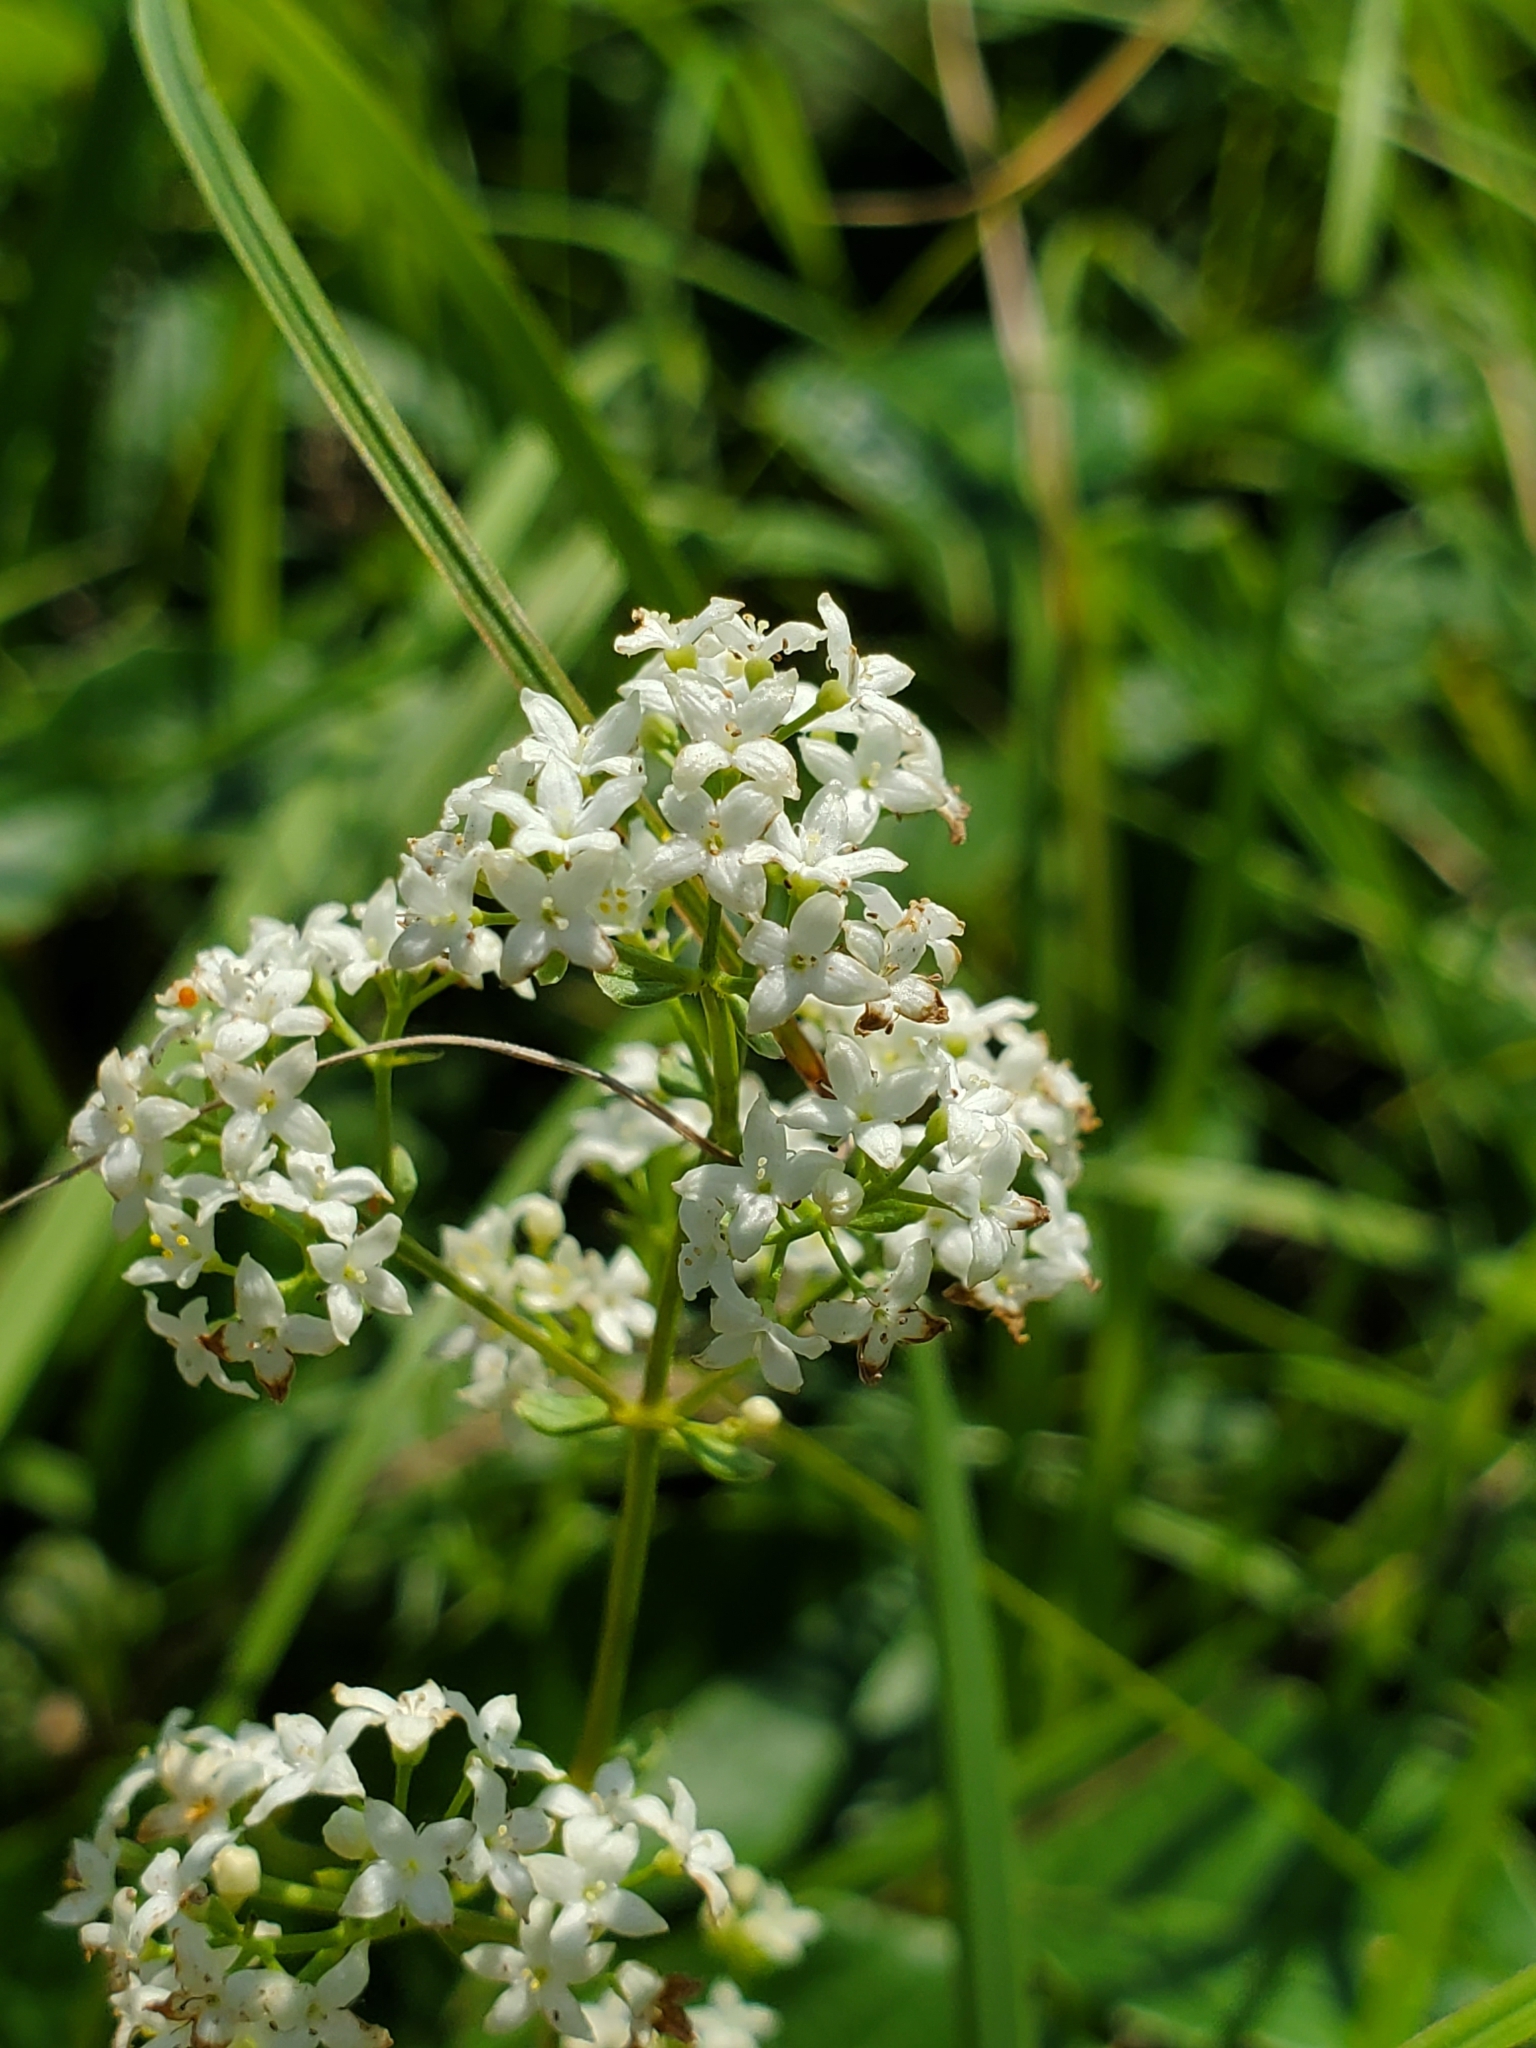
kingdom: Plantae
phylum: Tracheophyta
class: Magnoliopsida
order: Gentianales
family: Rubiaceae
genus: Galium
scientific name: Galium boreale
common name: Northern bedstraw
